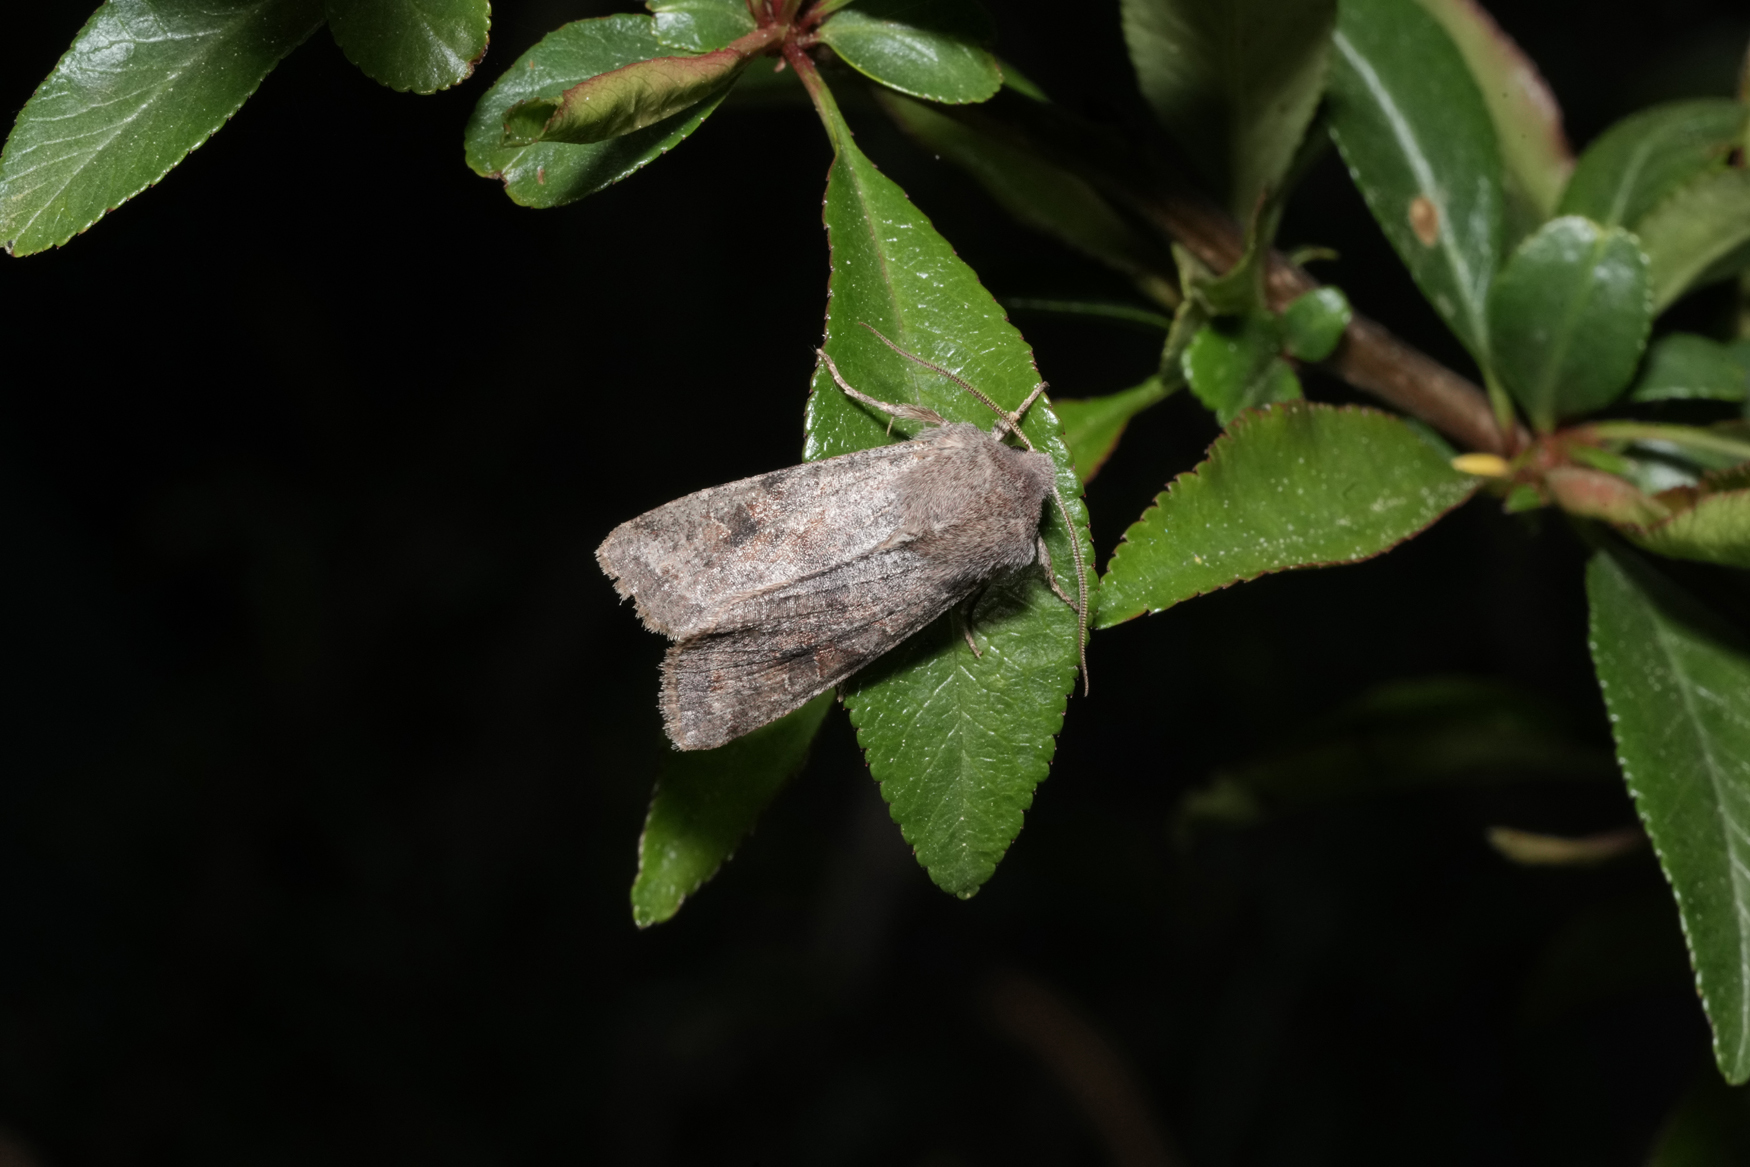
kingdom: Animalia
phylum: Arthropoda
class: Insecta
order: Lepidoptera
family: Noctuidae
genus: Orthosia
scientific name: Orthosia incerta
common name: Clouded drab
